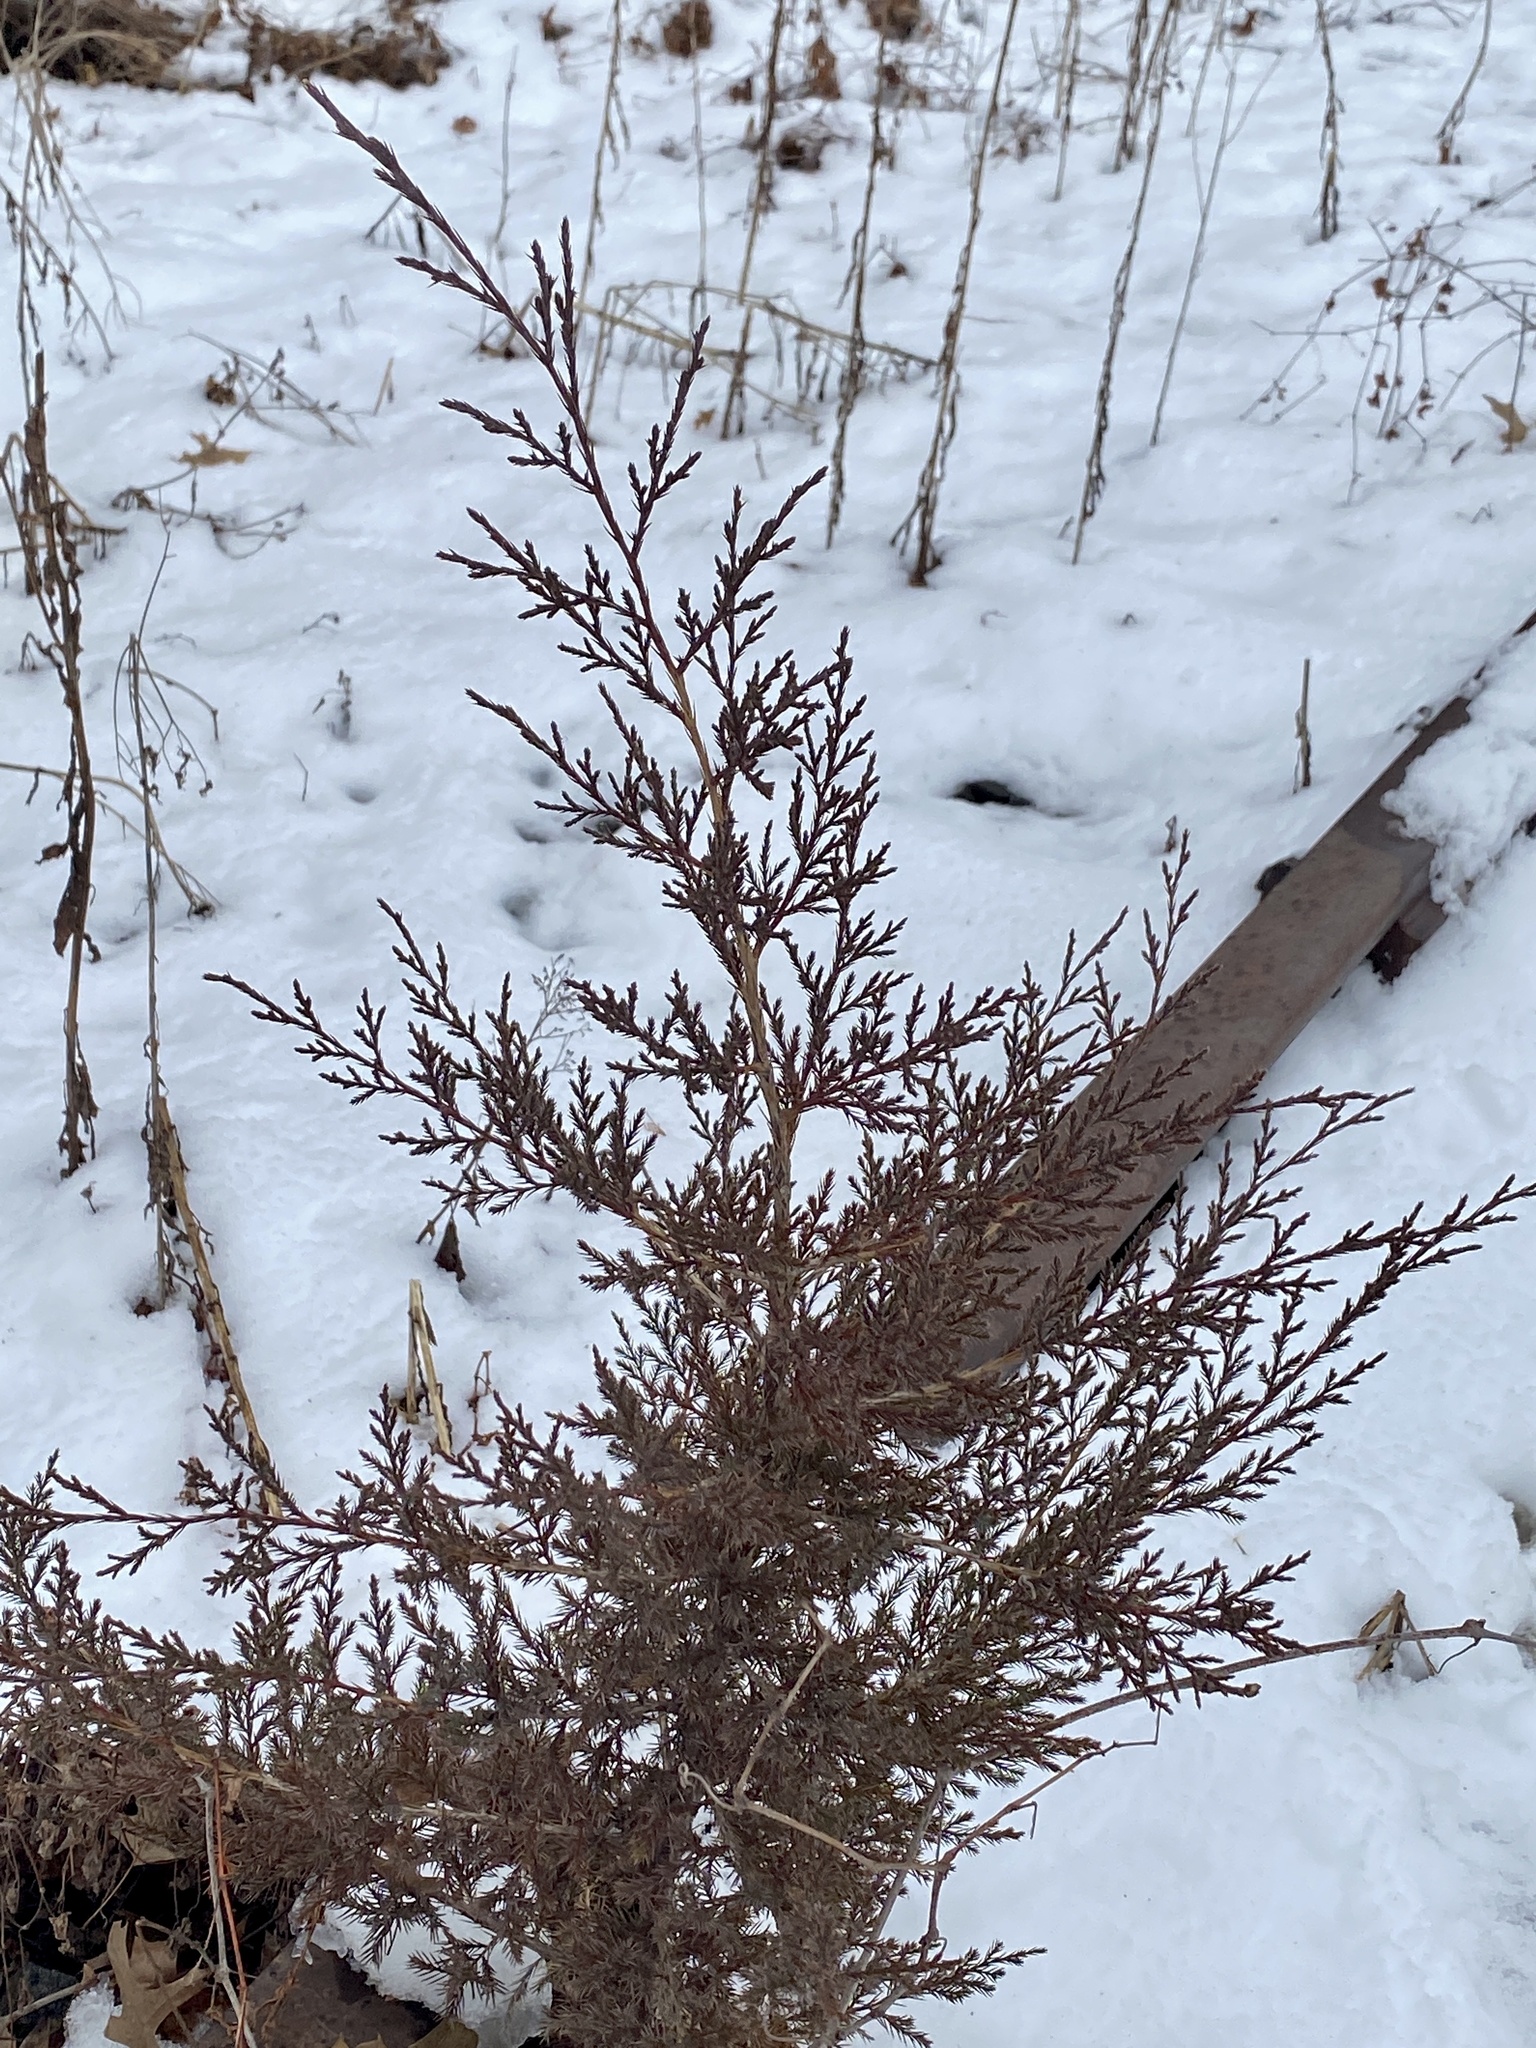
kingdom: Plantae
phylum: Tracheophyta
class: Pinopsida
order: Pinales
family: Cupressaceae
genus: Juniperus
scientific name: Juniperus virginiana
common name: Red juniper
